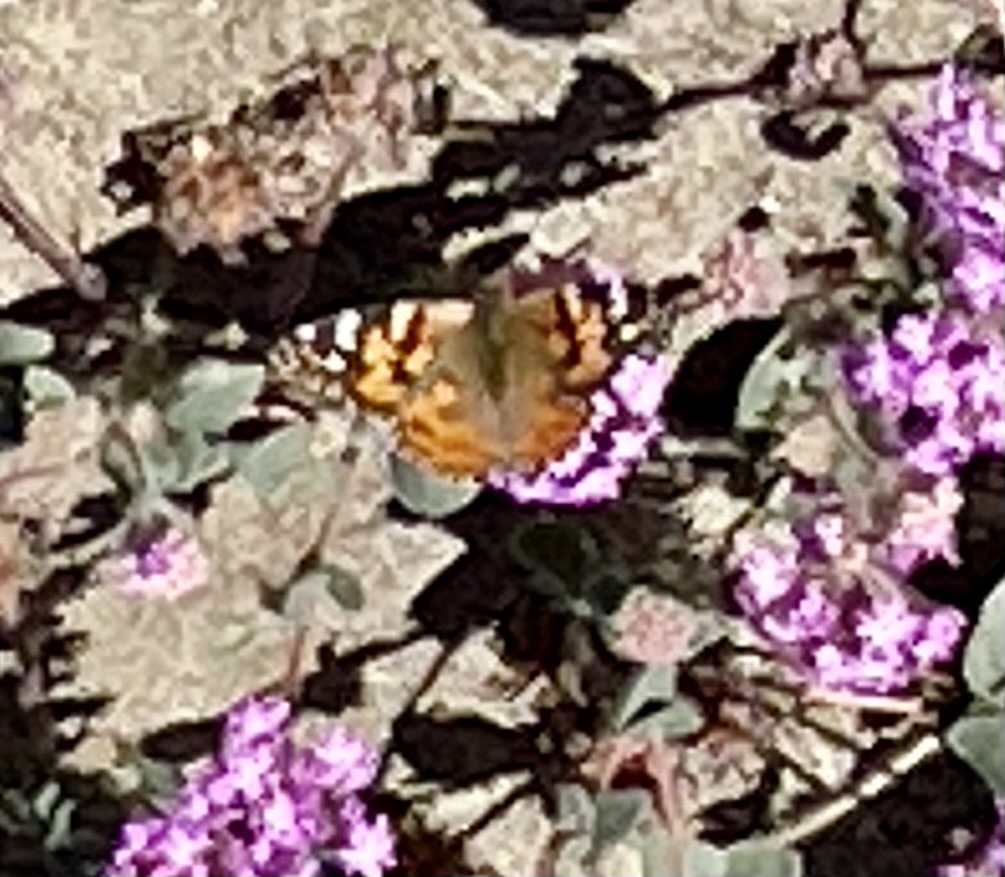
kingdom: Animalia
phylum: Arthropoda
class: Insecta
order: Lepidoptera
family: Nymphalidae
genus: Vanessa
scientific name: Vanessa cardui
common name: Painted lady
